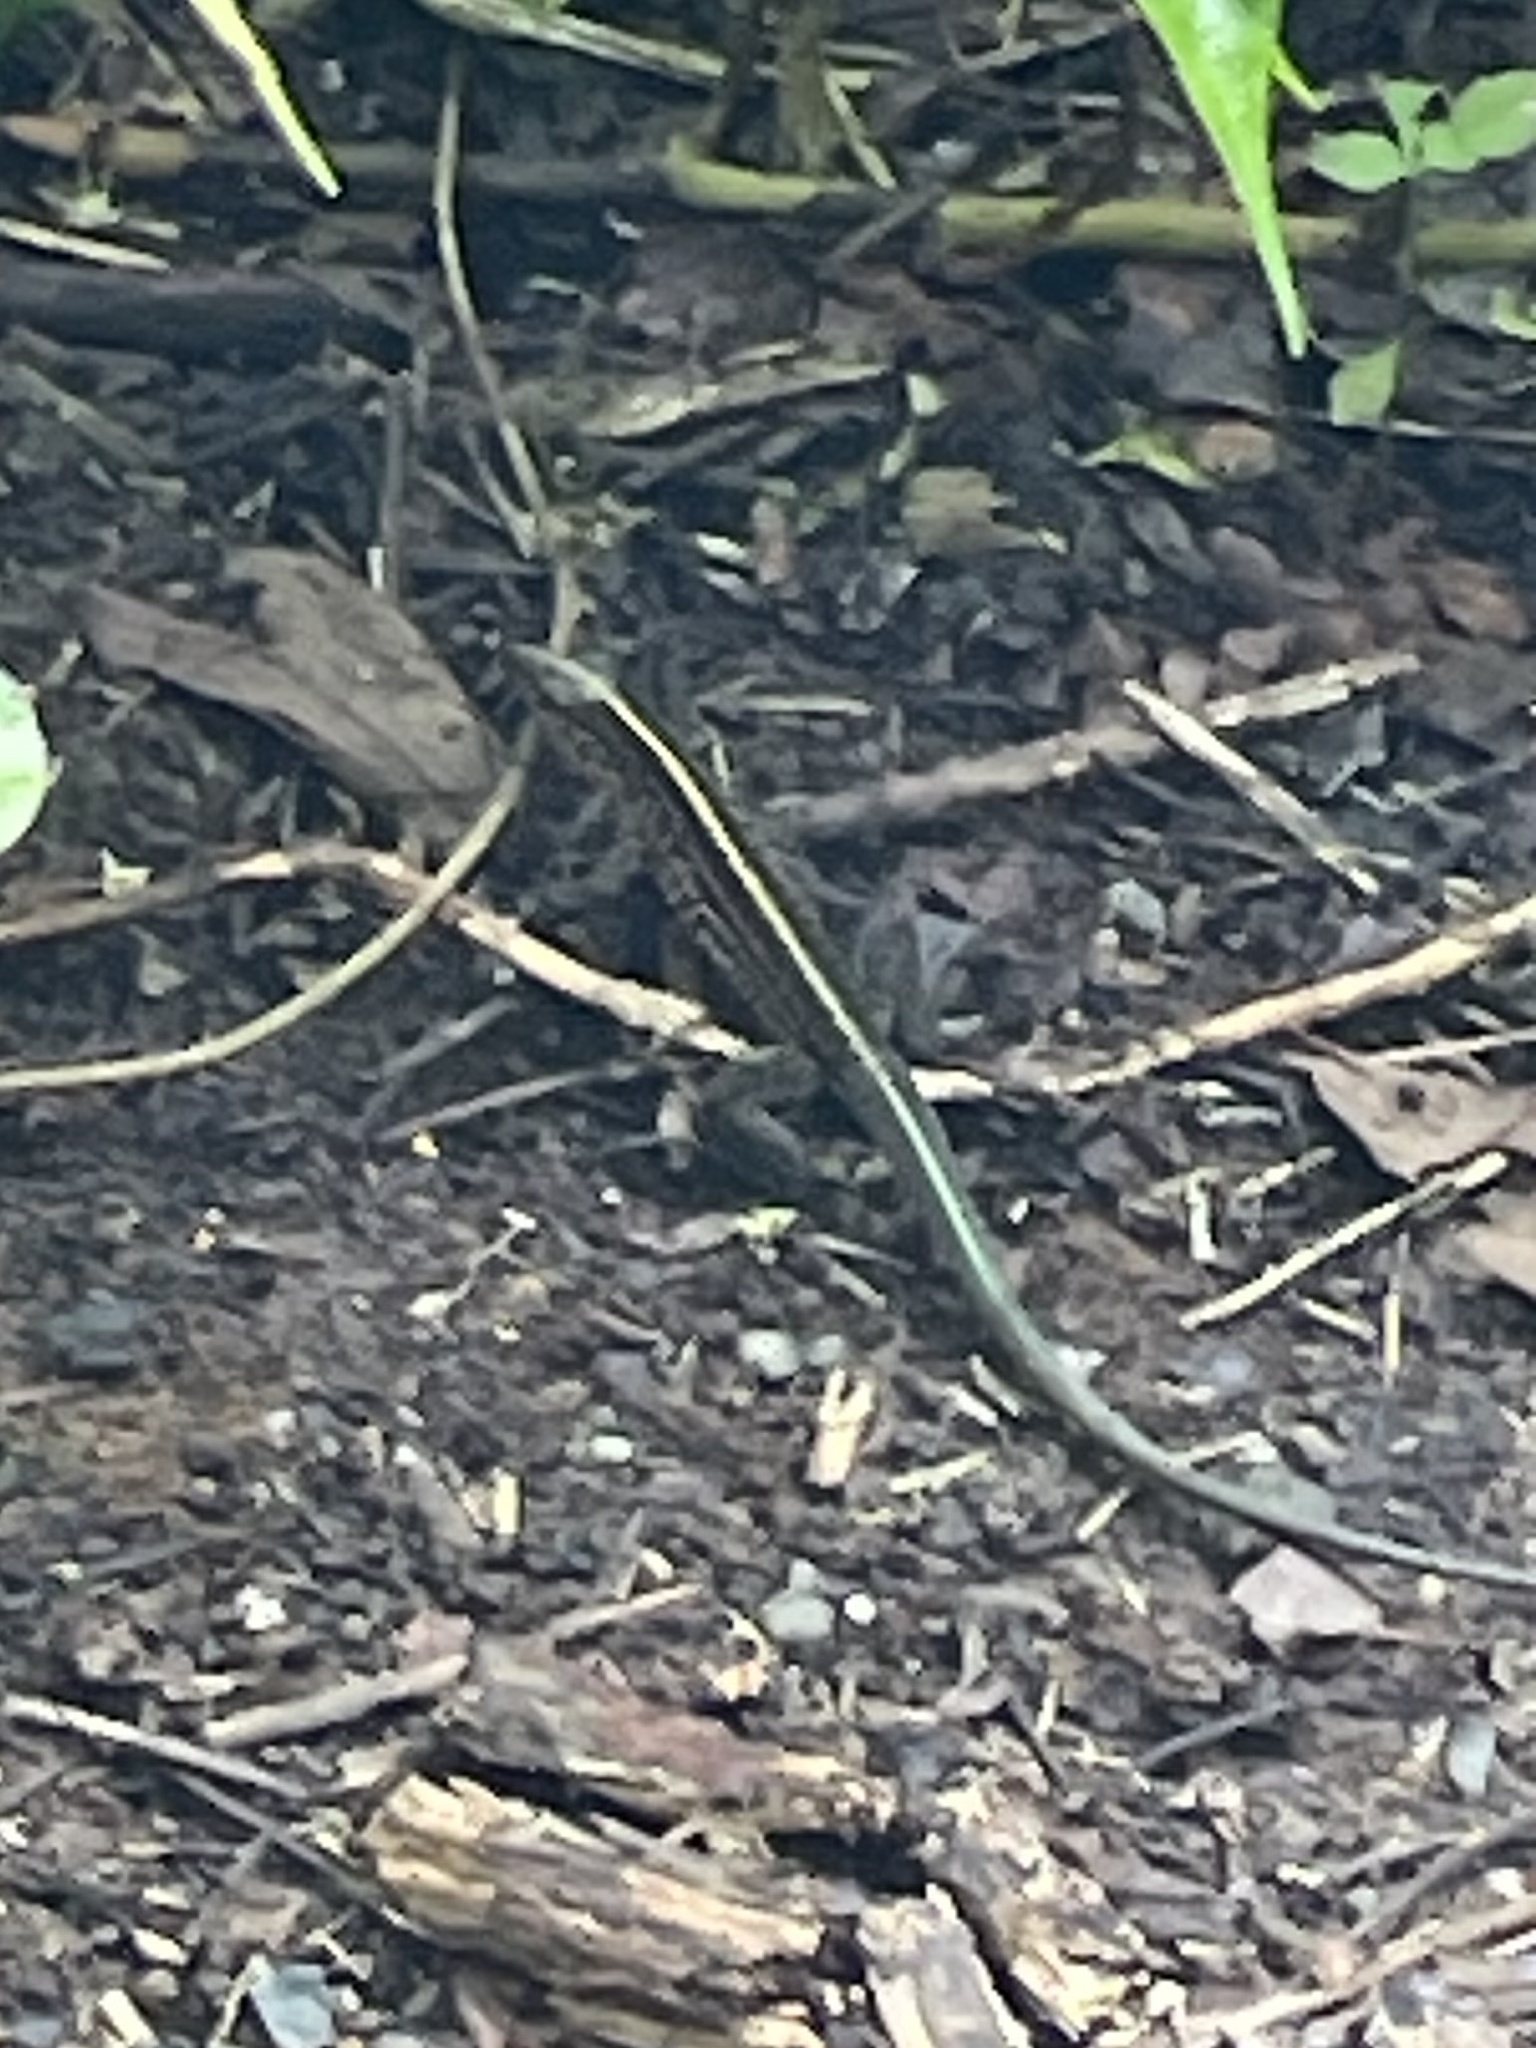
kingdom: Animalia
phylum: Chordata
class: Squamata
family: Teiidae
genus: Holcosus
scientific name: Holcosus festivus
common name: Middle american ameiva
